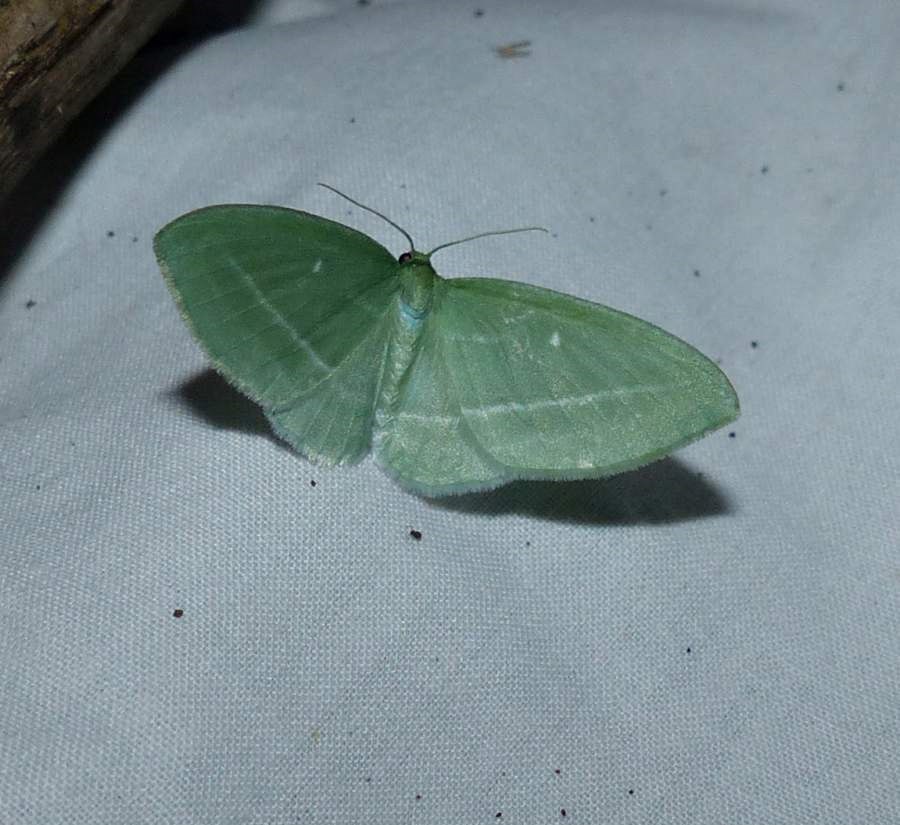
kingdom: Animalia
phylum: Arthropoda
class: Insecta
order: Lepidoptera
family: Geometridae
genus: Dyspteris
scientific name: Dyspteris abortivaria
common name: Bad-wing
